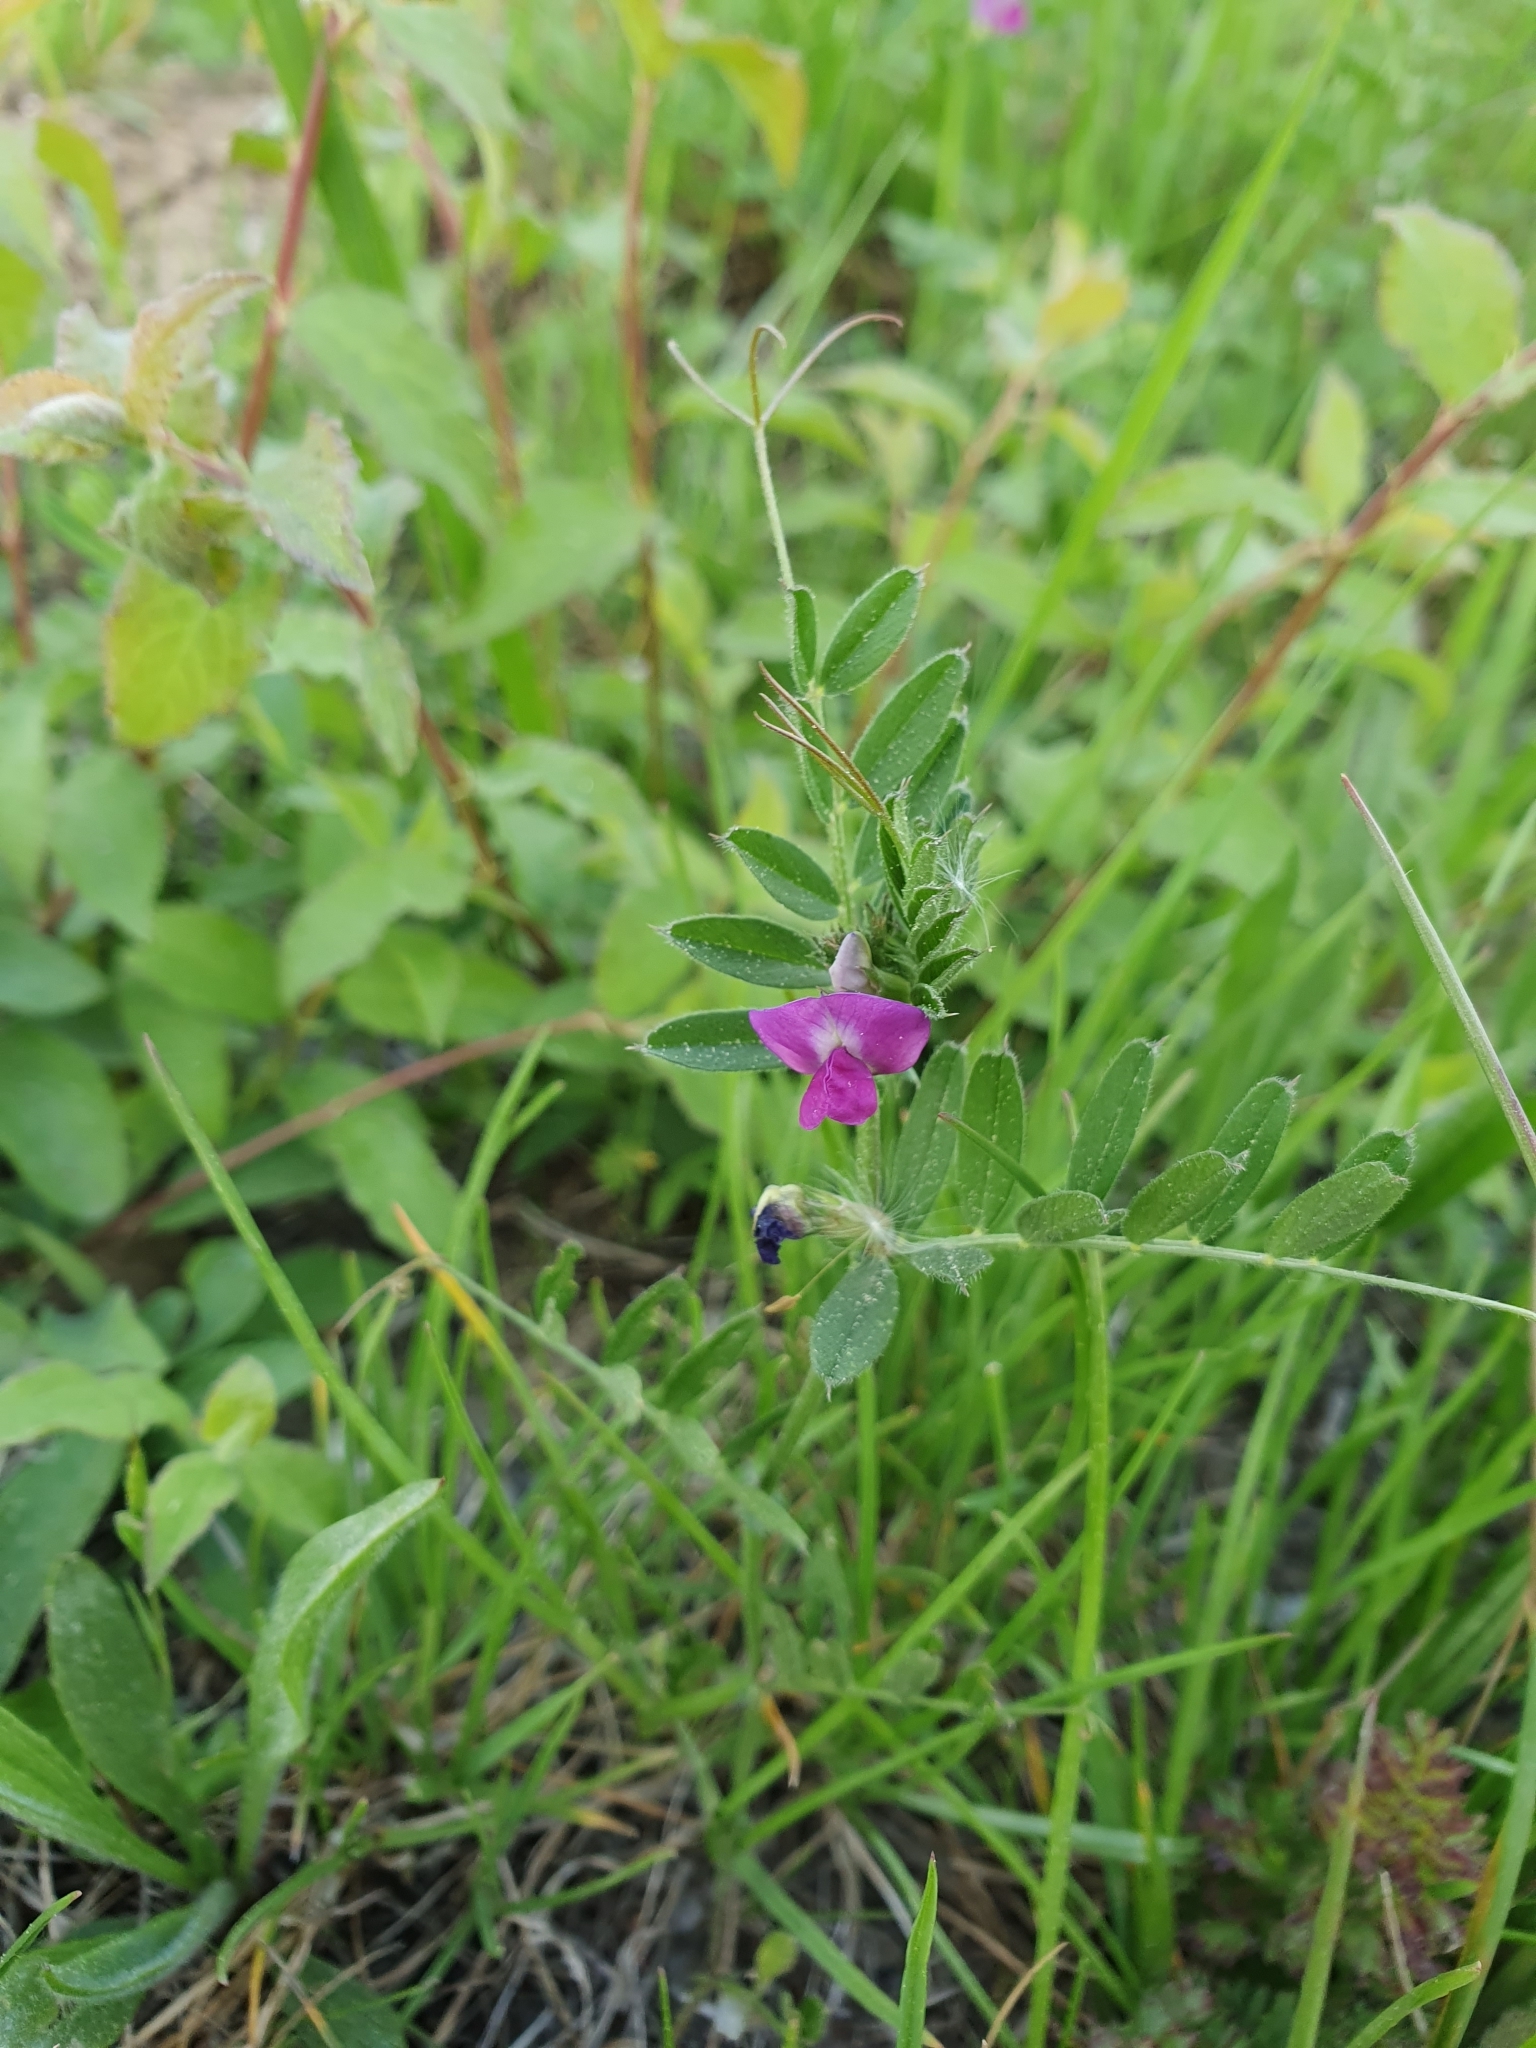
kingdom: Plantae
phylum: Tracheophyta
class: Magnoliopsida
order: Fabales
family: Fabaceae
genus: Vicia
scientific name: Vicia sativa
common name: Garden vetch
